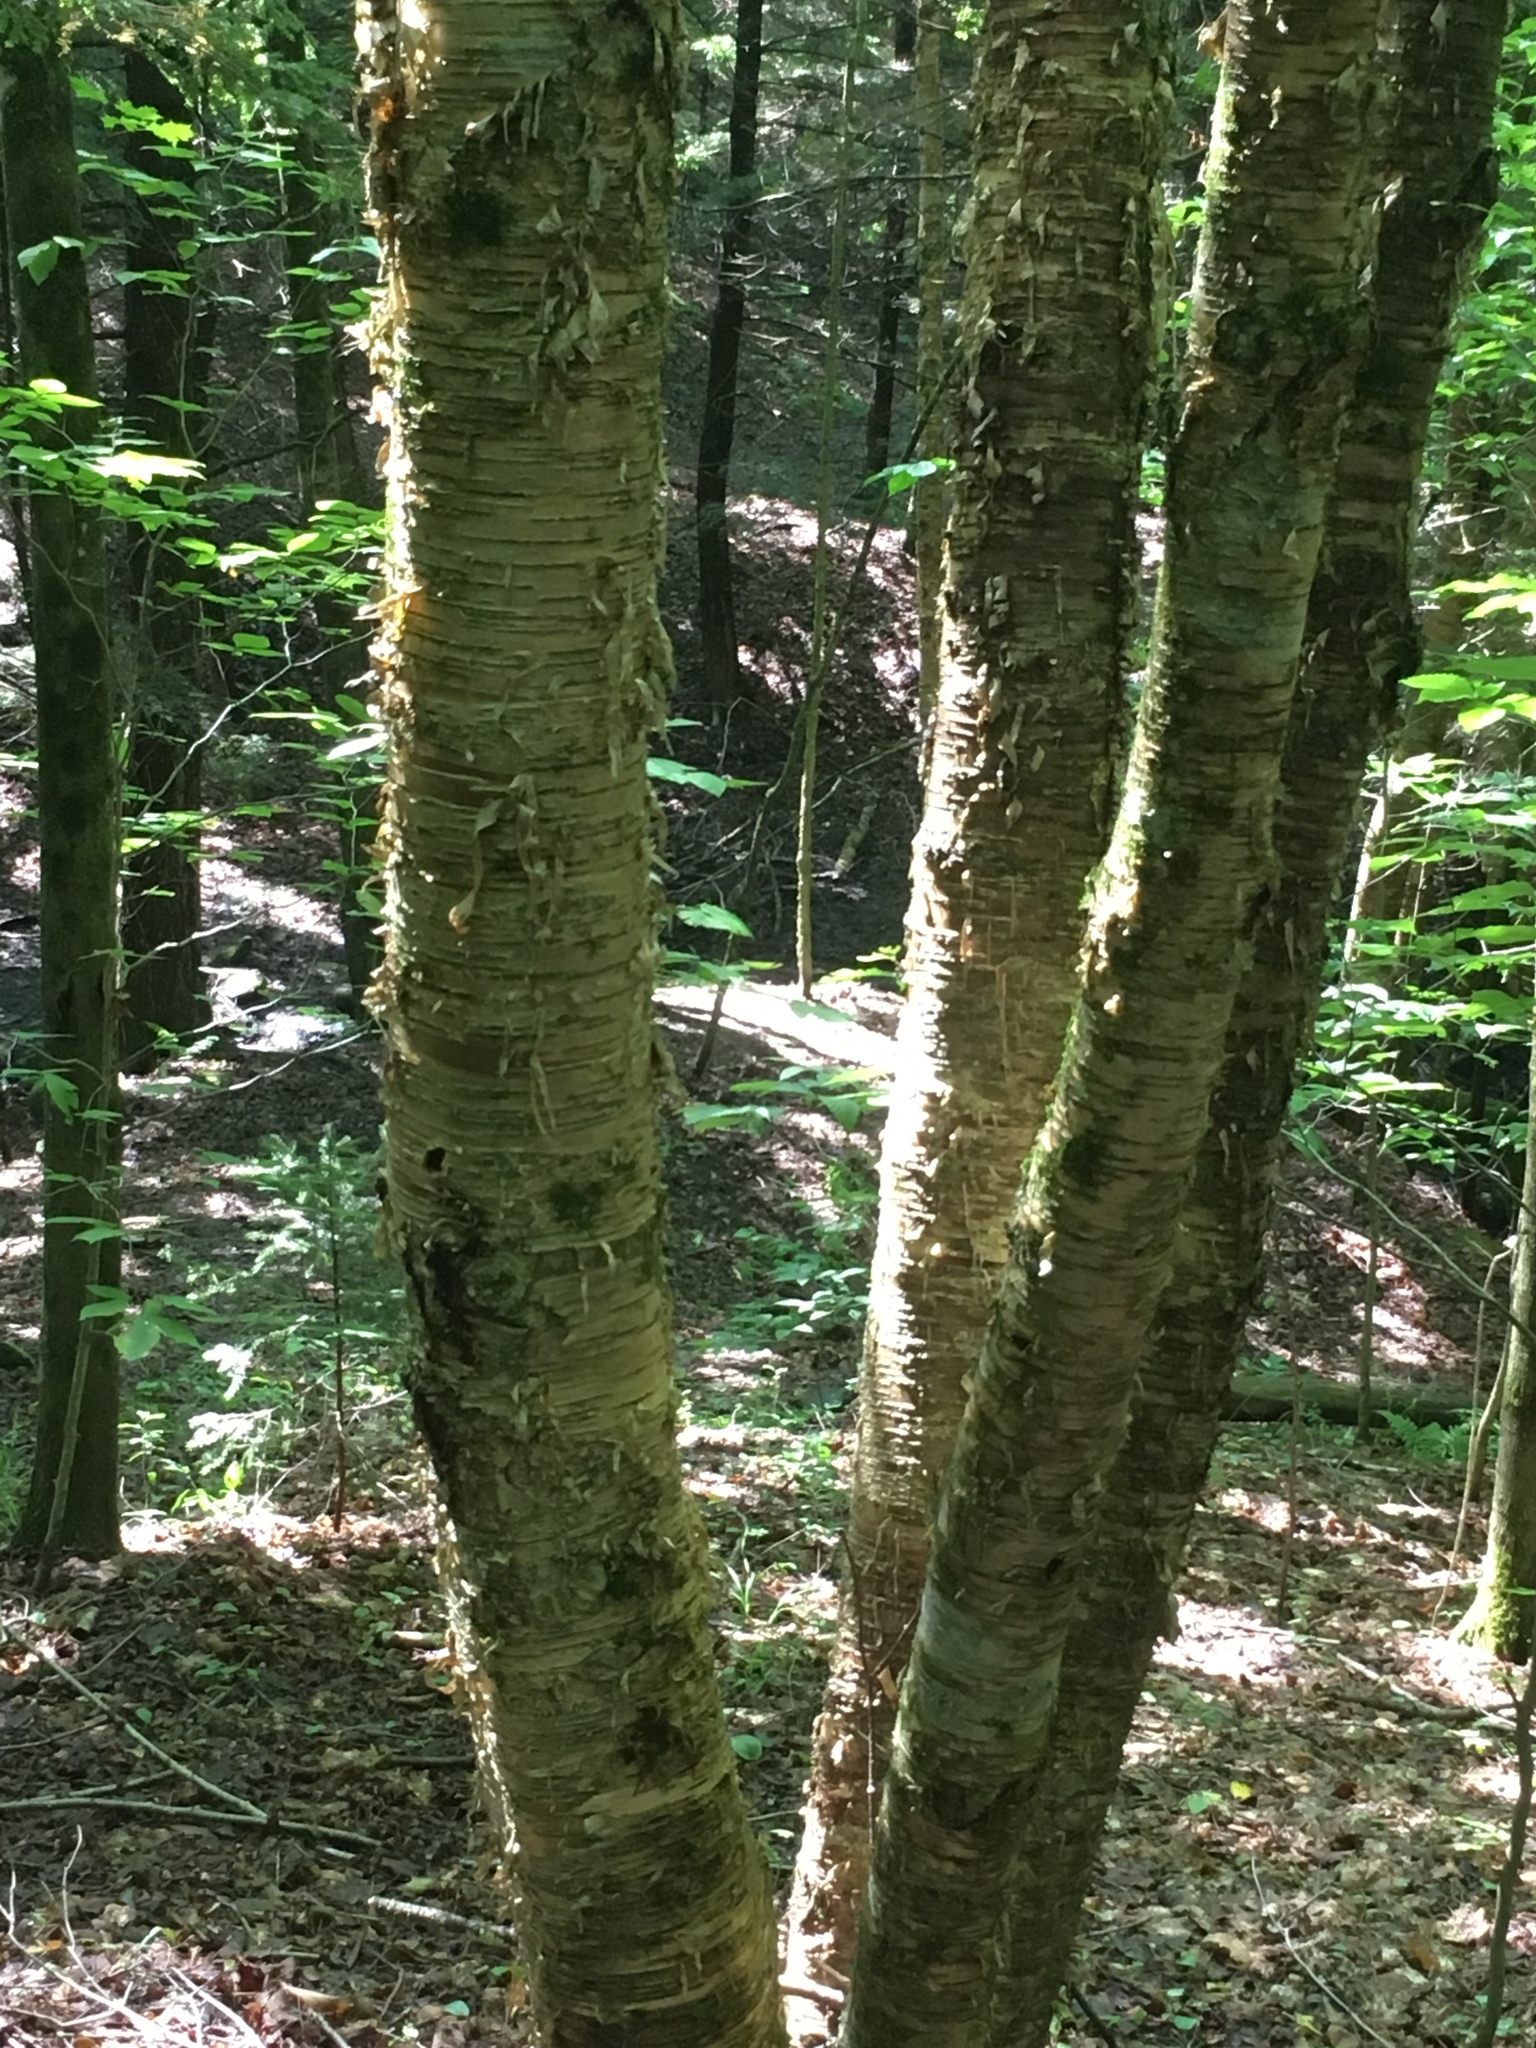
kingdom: Plantae
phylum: Tracheophyta
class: Magnoliopsida
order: Fagales
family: Betulaceae
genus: Betula
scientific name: Betula alleghaniensis
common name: Yellow birch
